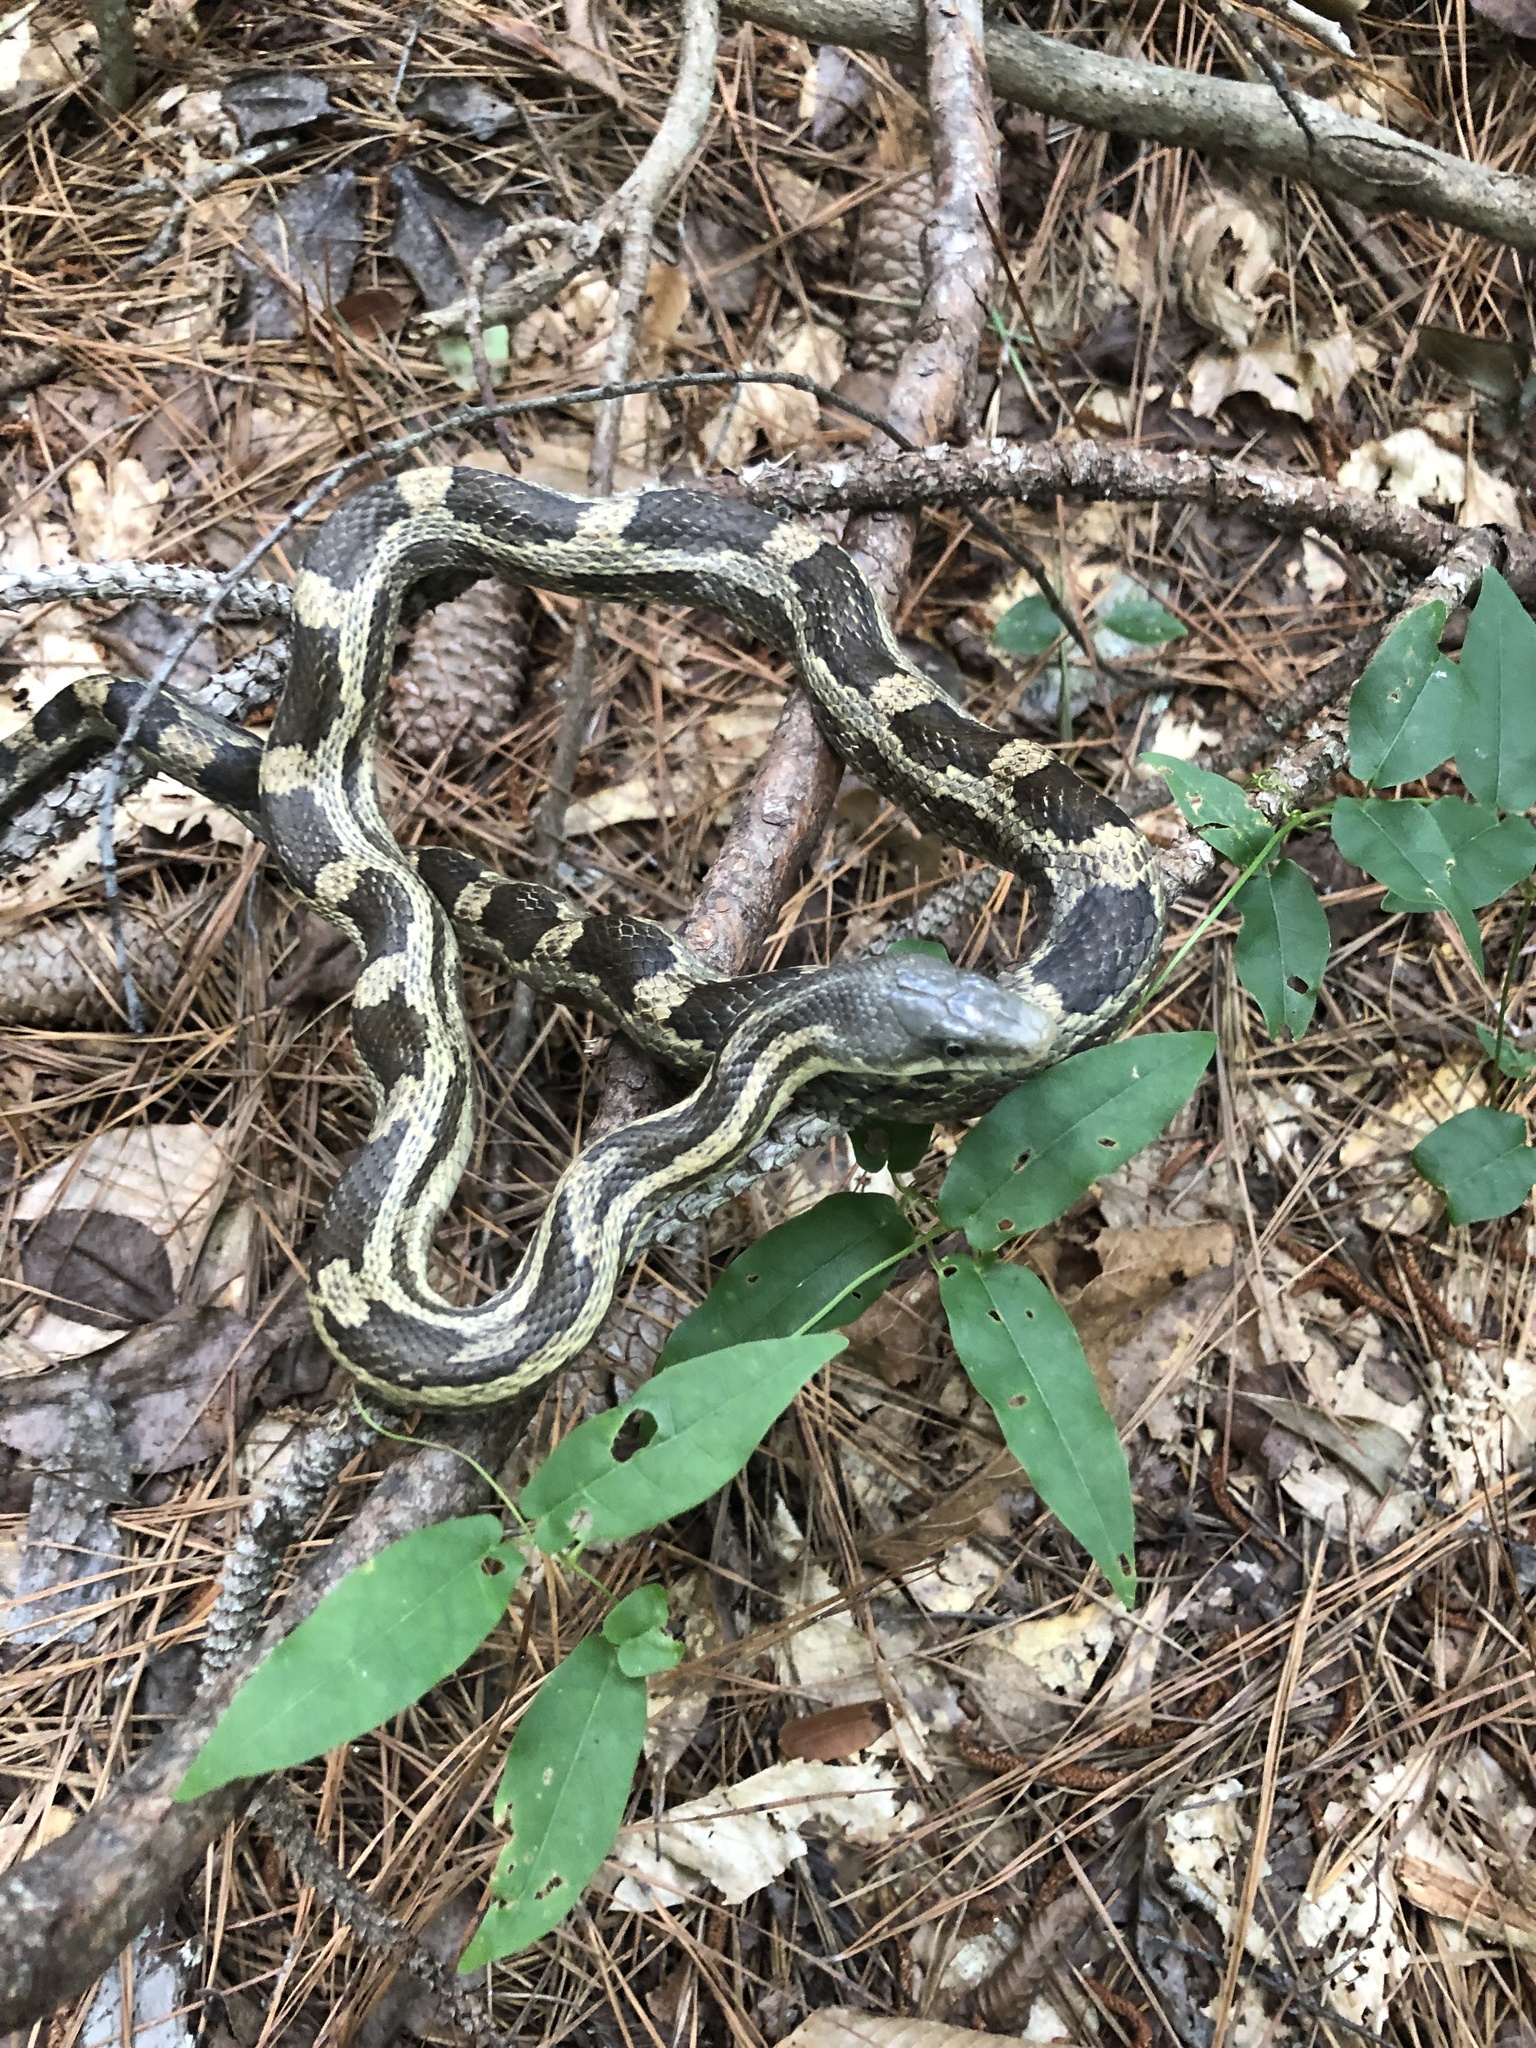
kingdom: Animalia
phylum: Chordata
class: Squamata
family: Colubridae
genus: Pantherophis
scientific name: Pantherophis spiloides
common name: Gray rat snake
